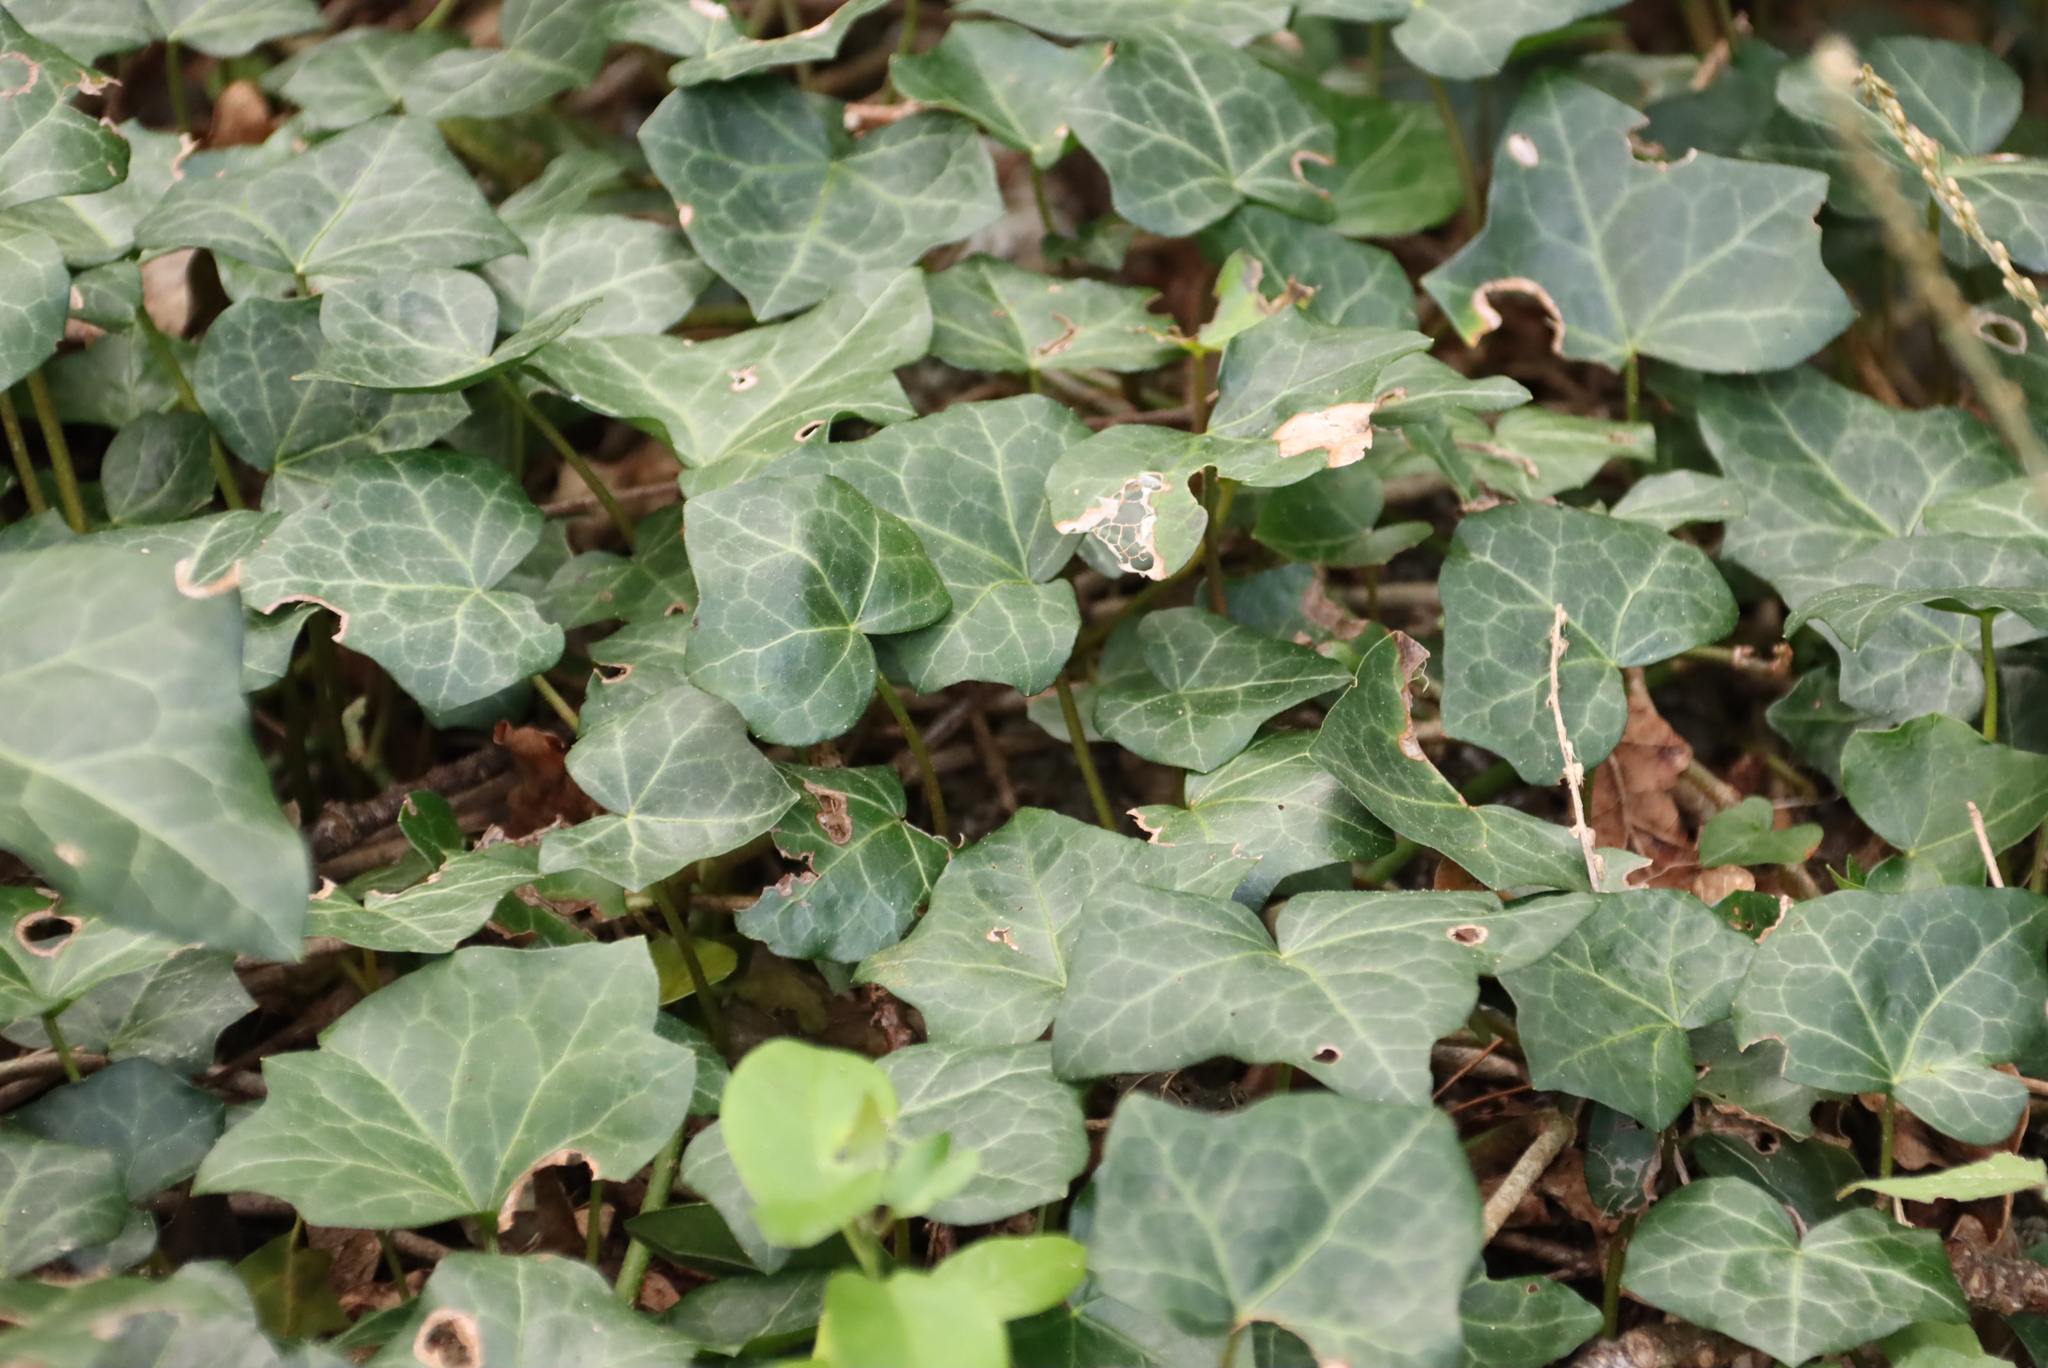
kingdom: Plantae
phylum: Tracheophyta
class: Magnoliopsida
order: Apiales
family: Araliaceae
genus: Hedera
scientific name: Hedera helix
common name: Ivy
